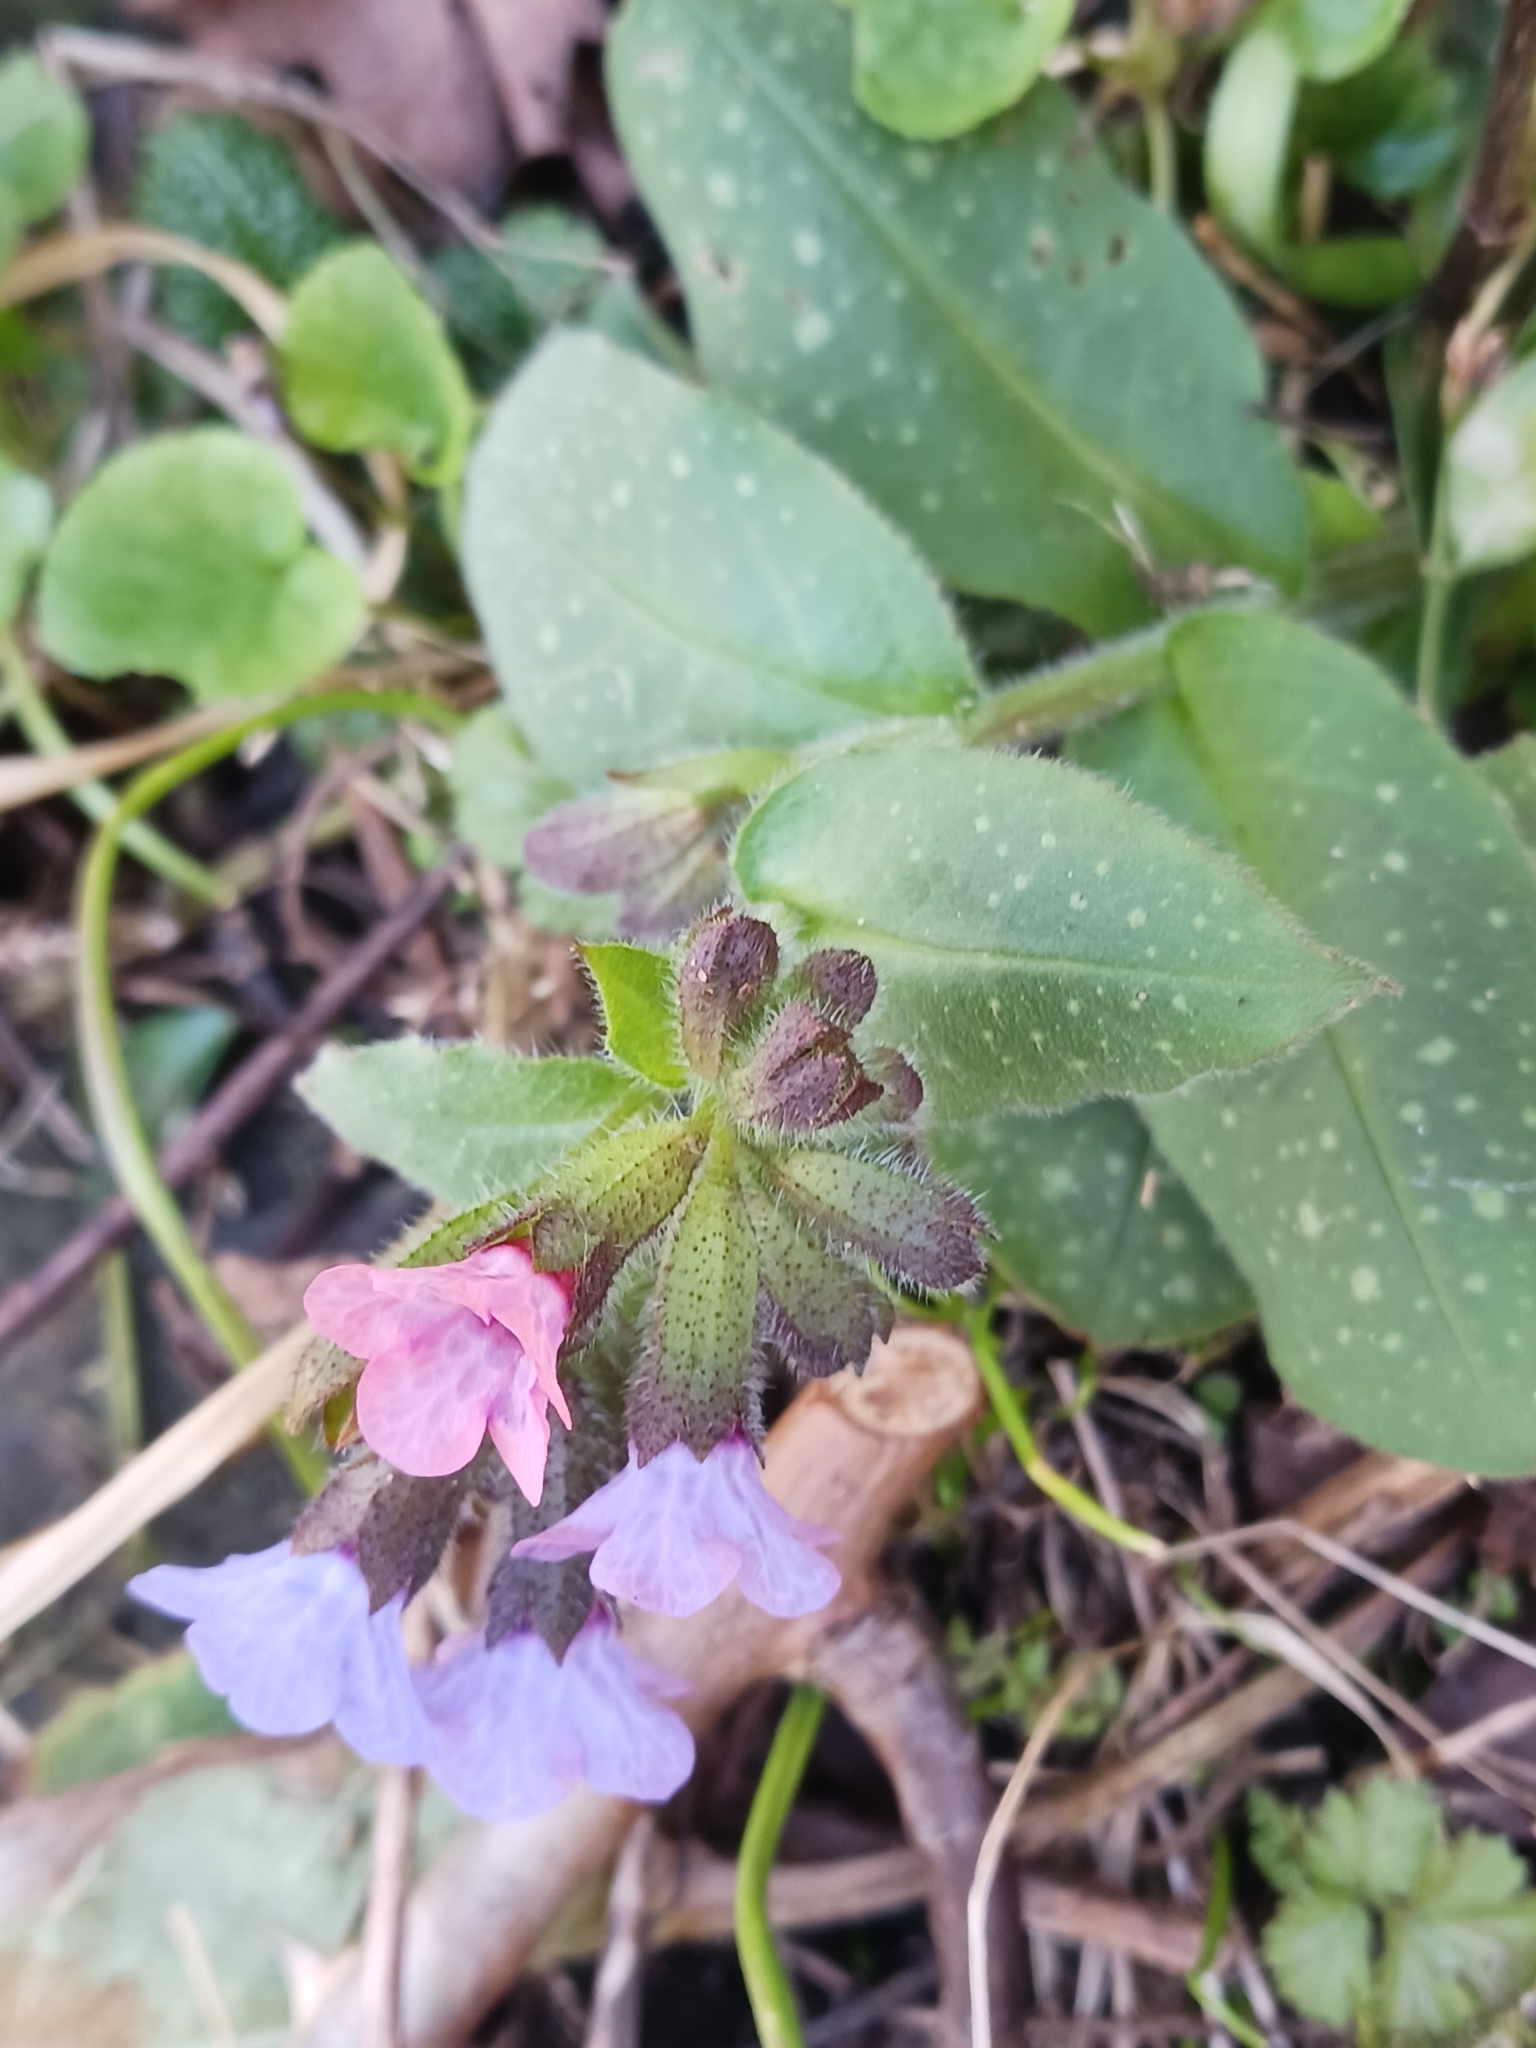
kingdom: Plantae
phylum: Tracheophyta
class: Magnoliopsida
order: Boraginales
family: Boraginaceae
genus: Pulmonaria
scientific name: Pulmonaria officinalis
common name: Lungwort
